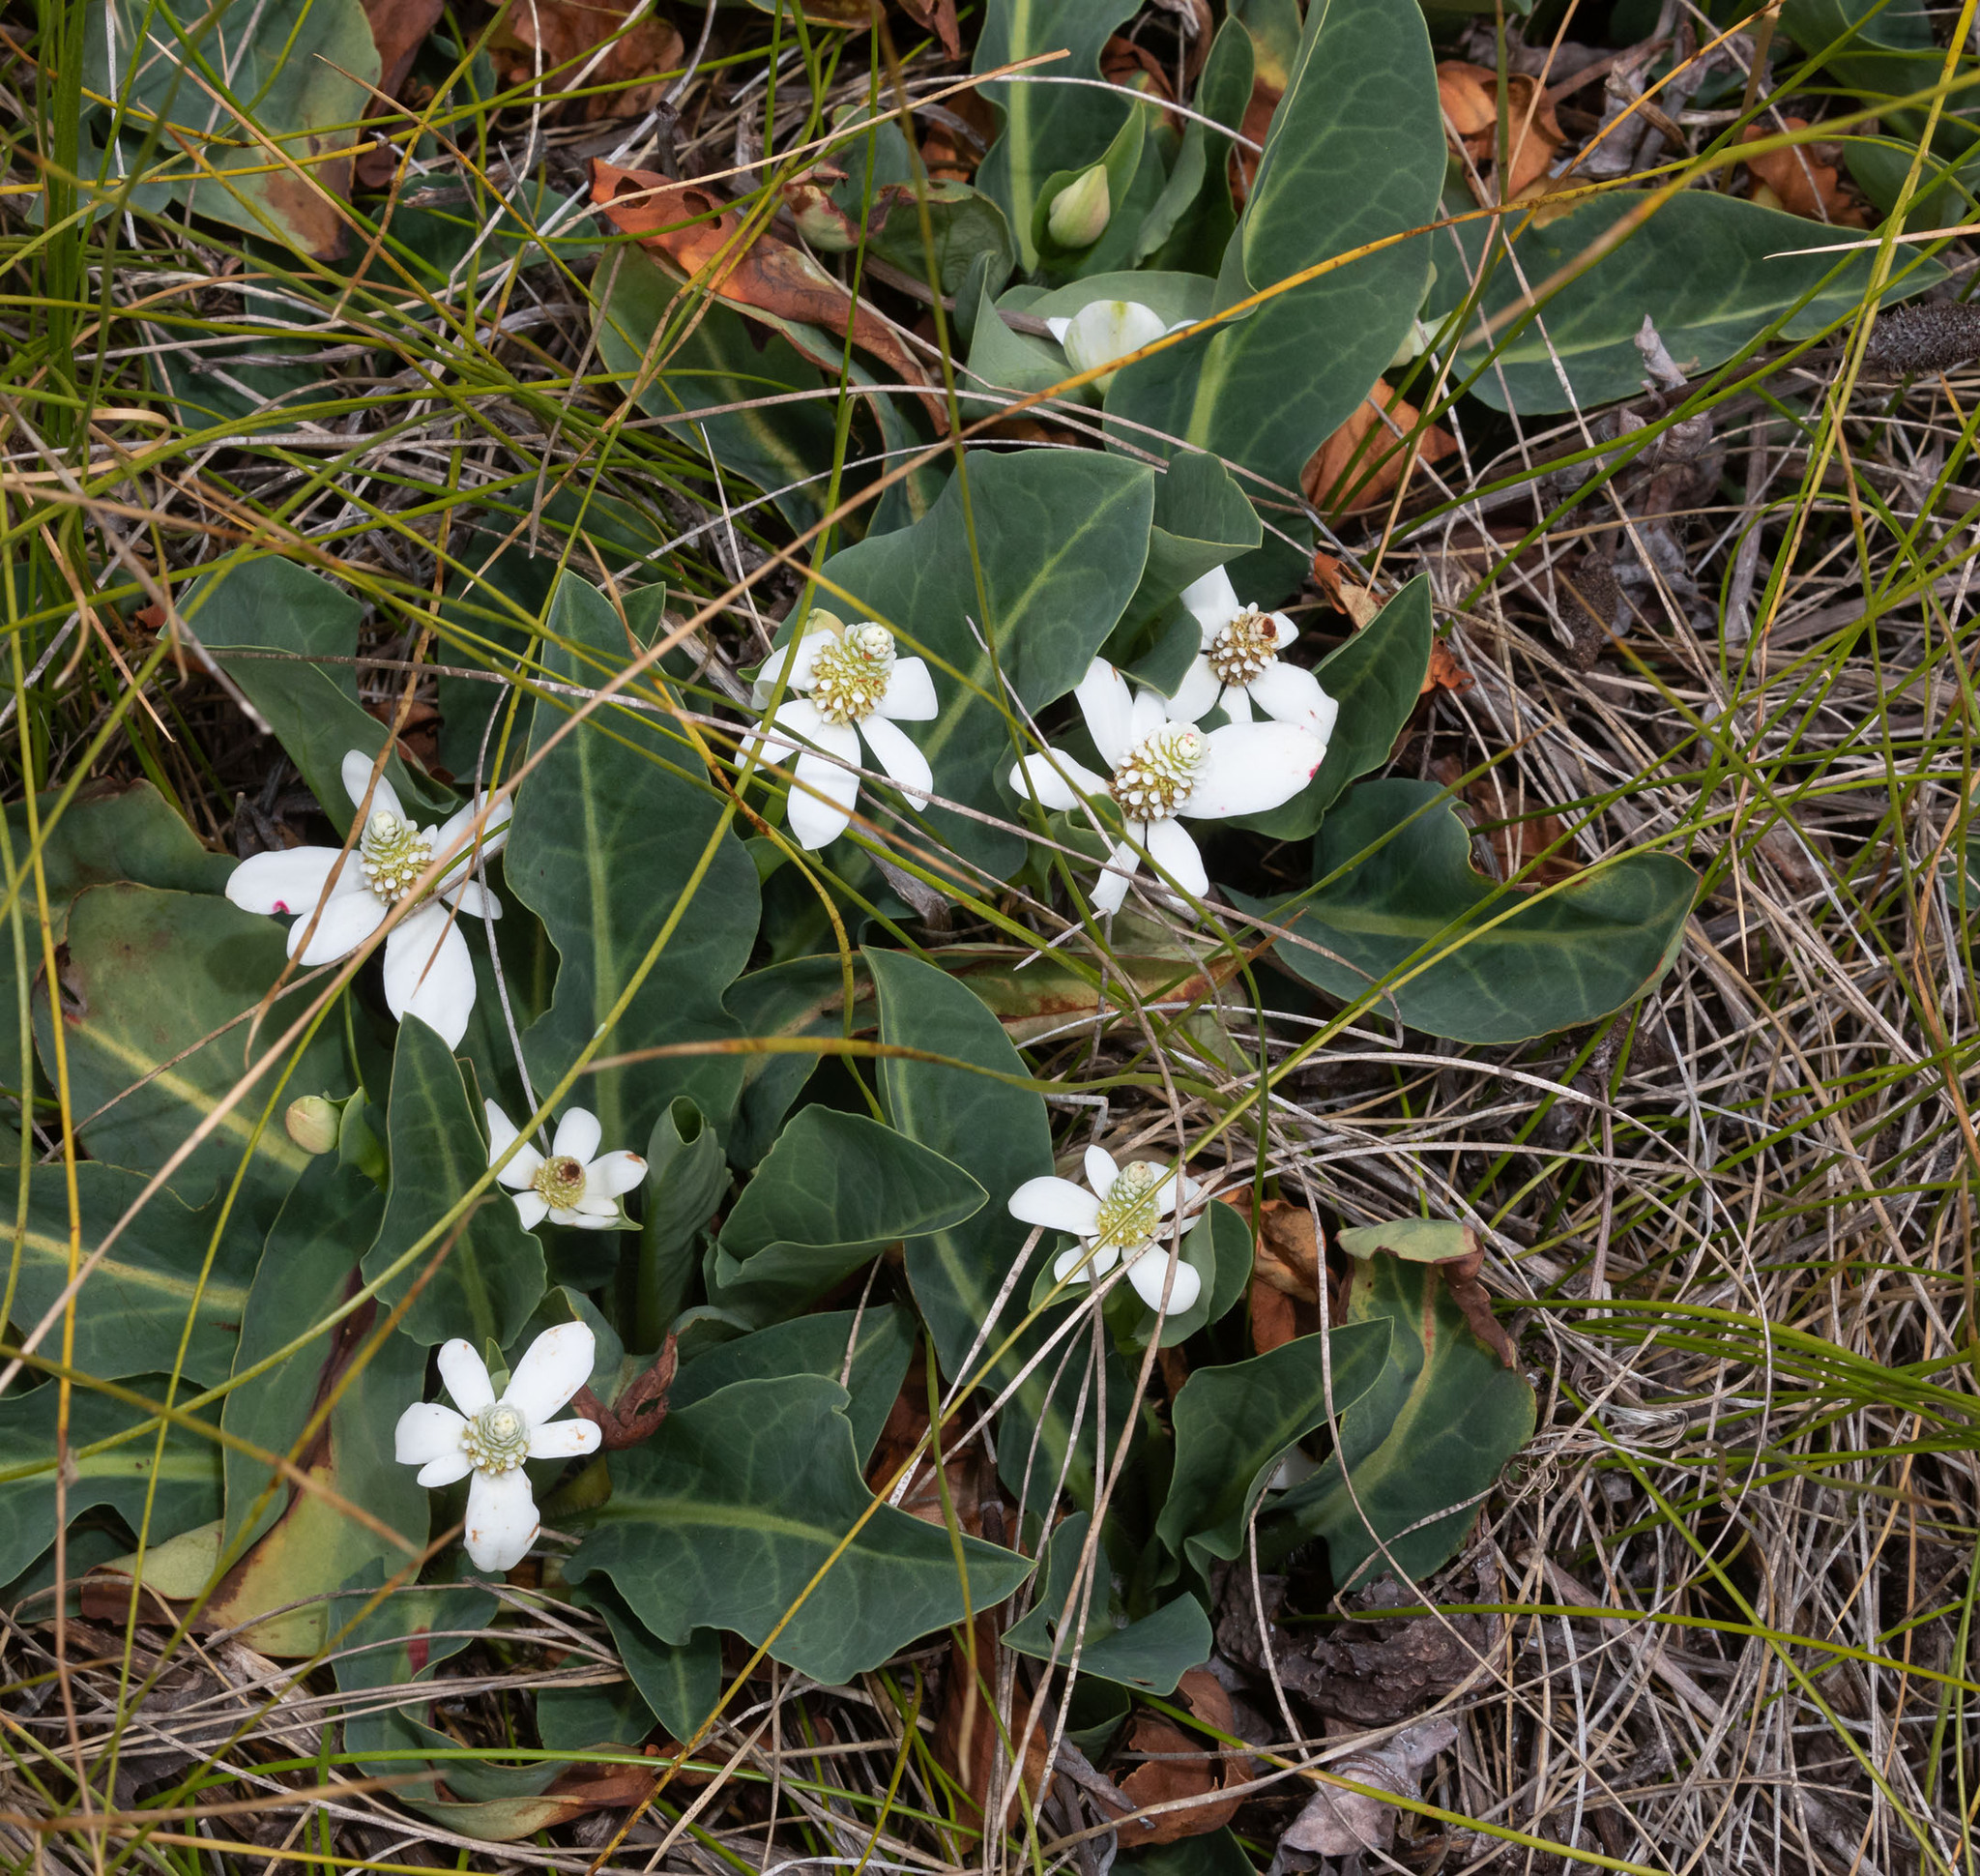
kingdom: Plantae
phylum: Tracheophyta
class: Magnoliopsida
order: Piperales
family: Saururaceae
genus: Anemopsis
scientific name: Anemopsis californica
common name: Apache-beads
